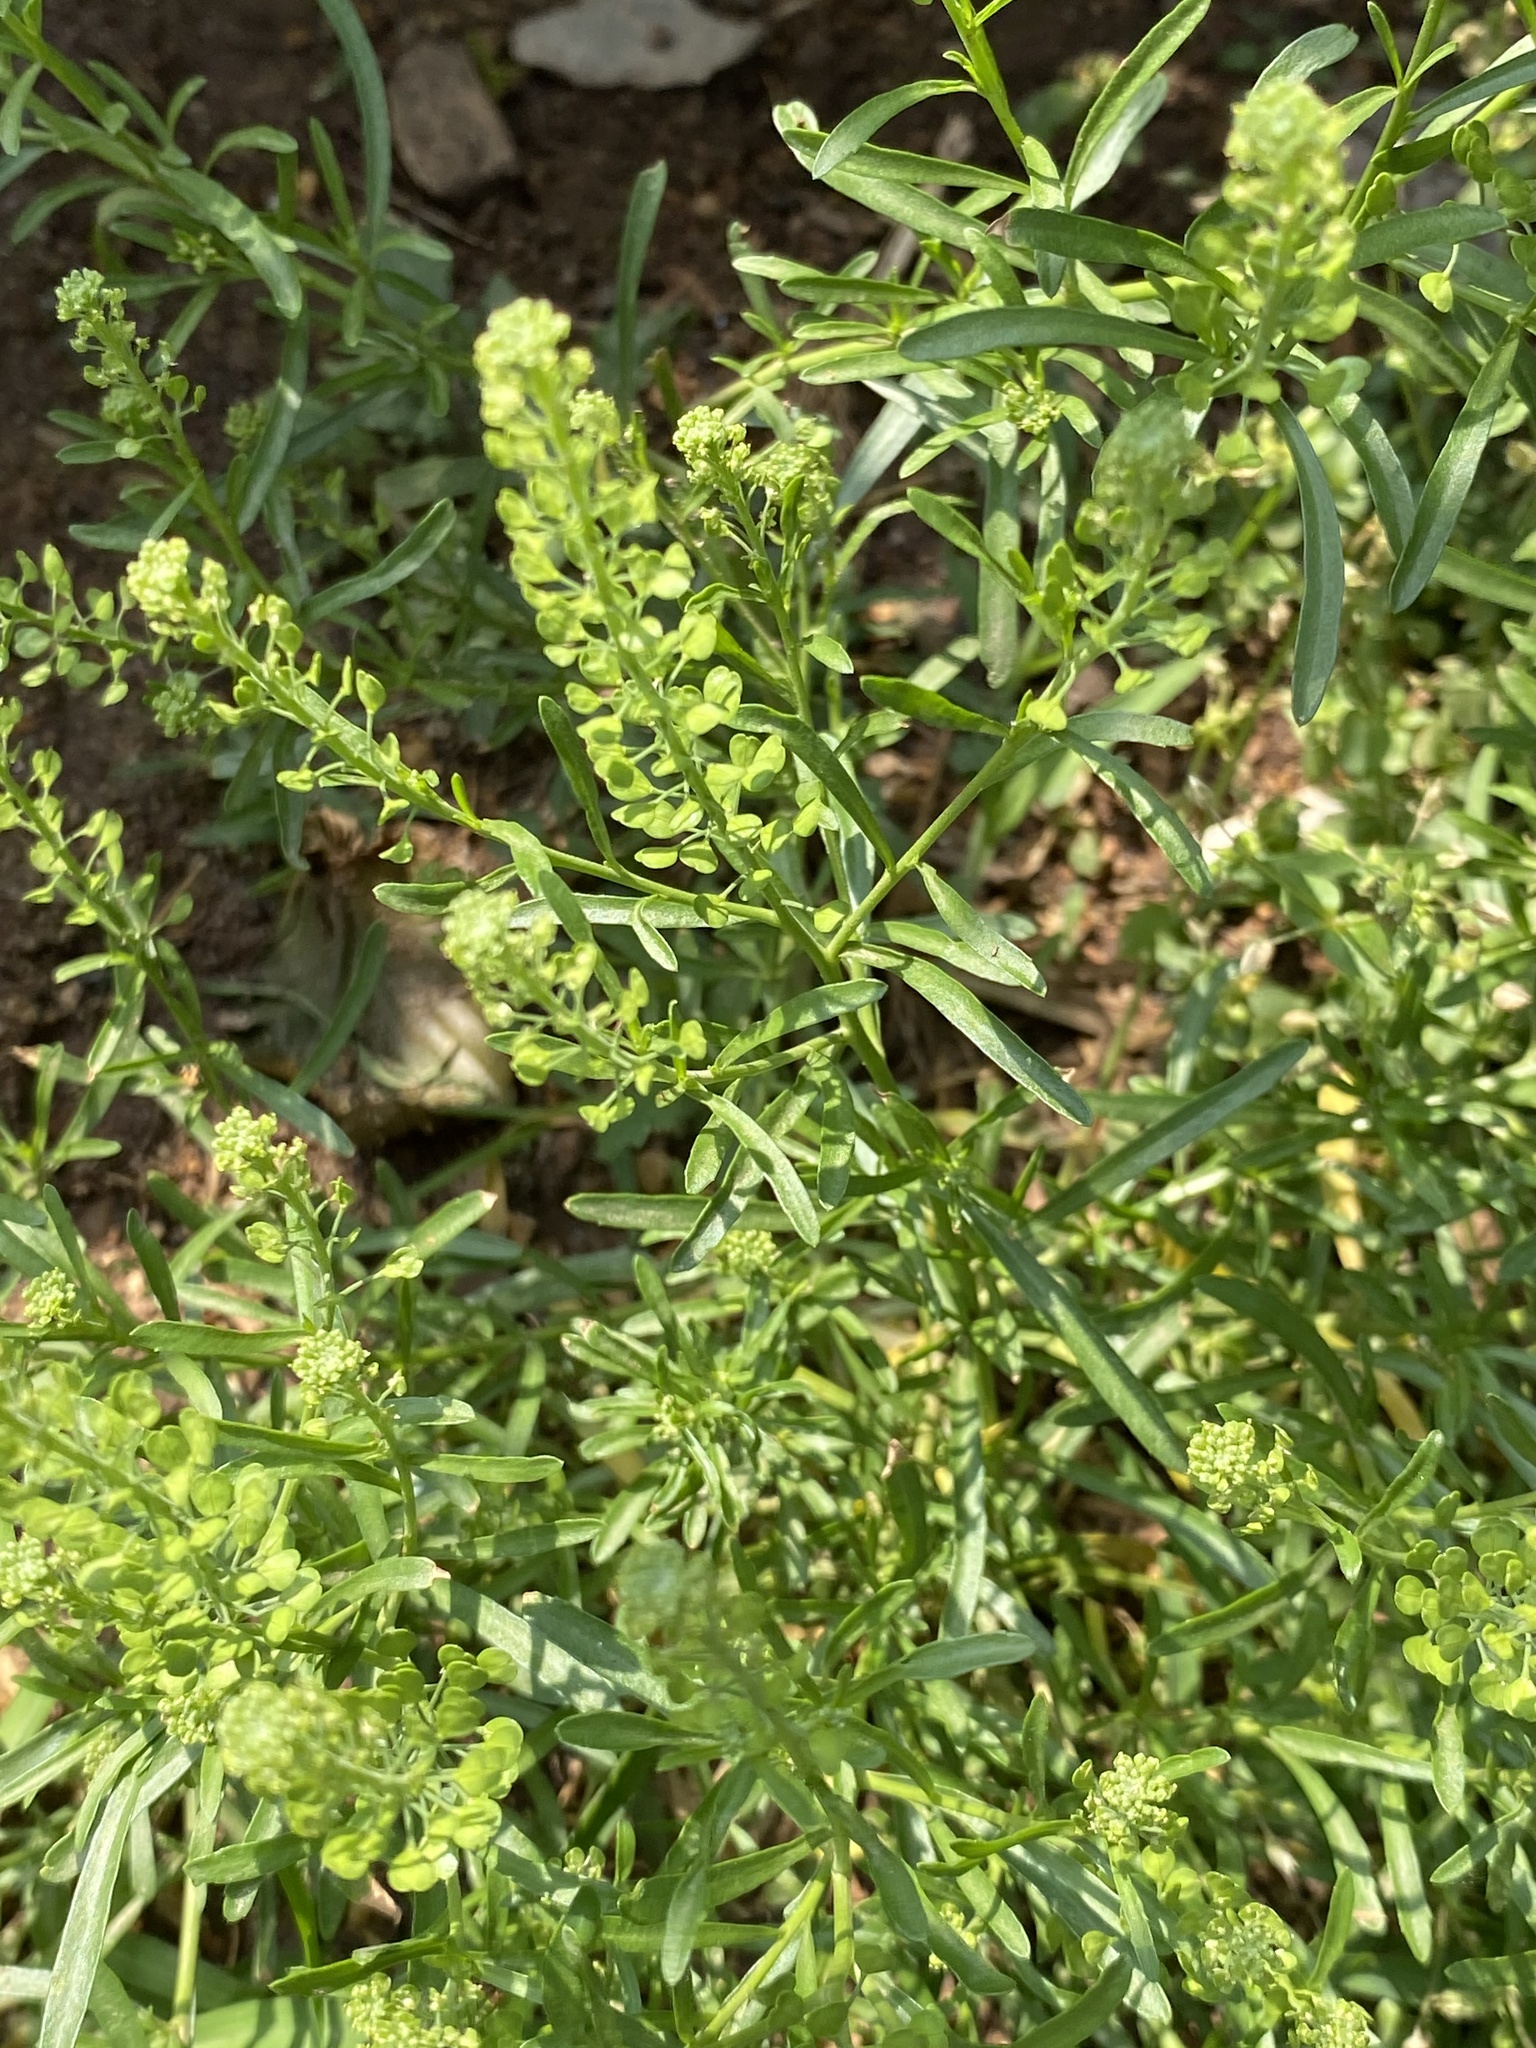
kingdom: Plantae
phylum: Tracheophyta
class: Magnoliopsida
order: Brassicales
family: Brassicaceae
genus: Lepidium
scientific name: Lepidium virginicum
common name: Least pepperwort
